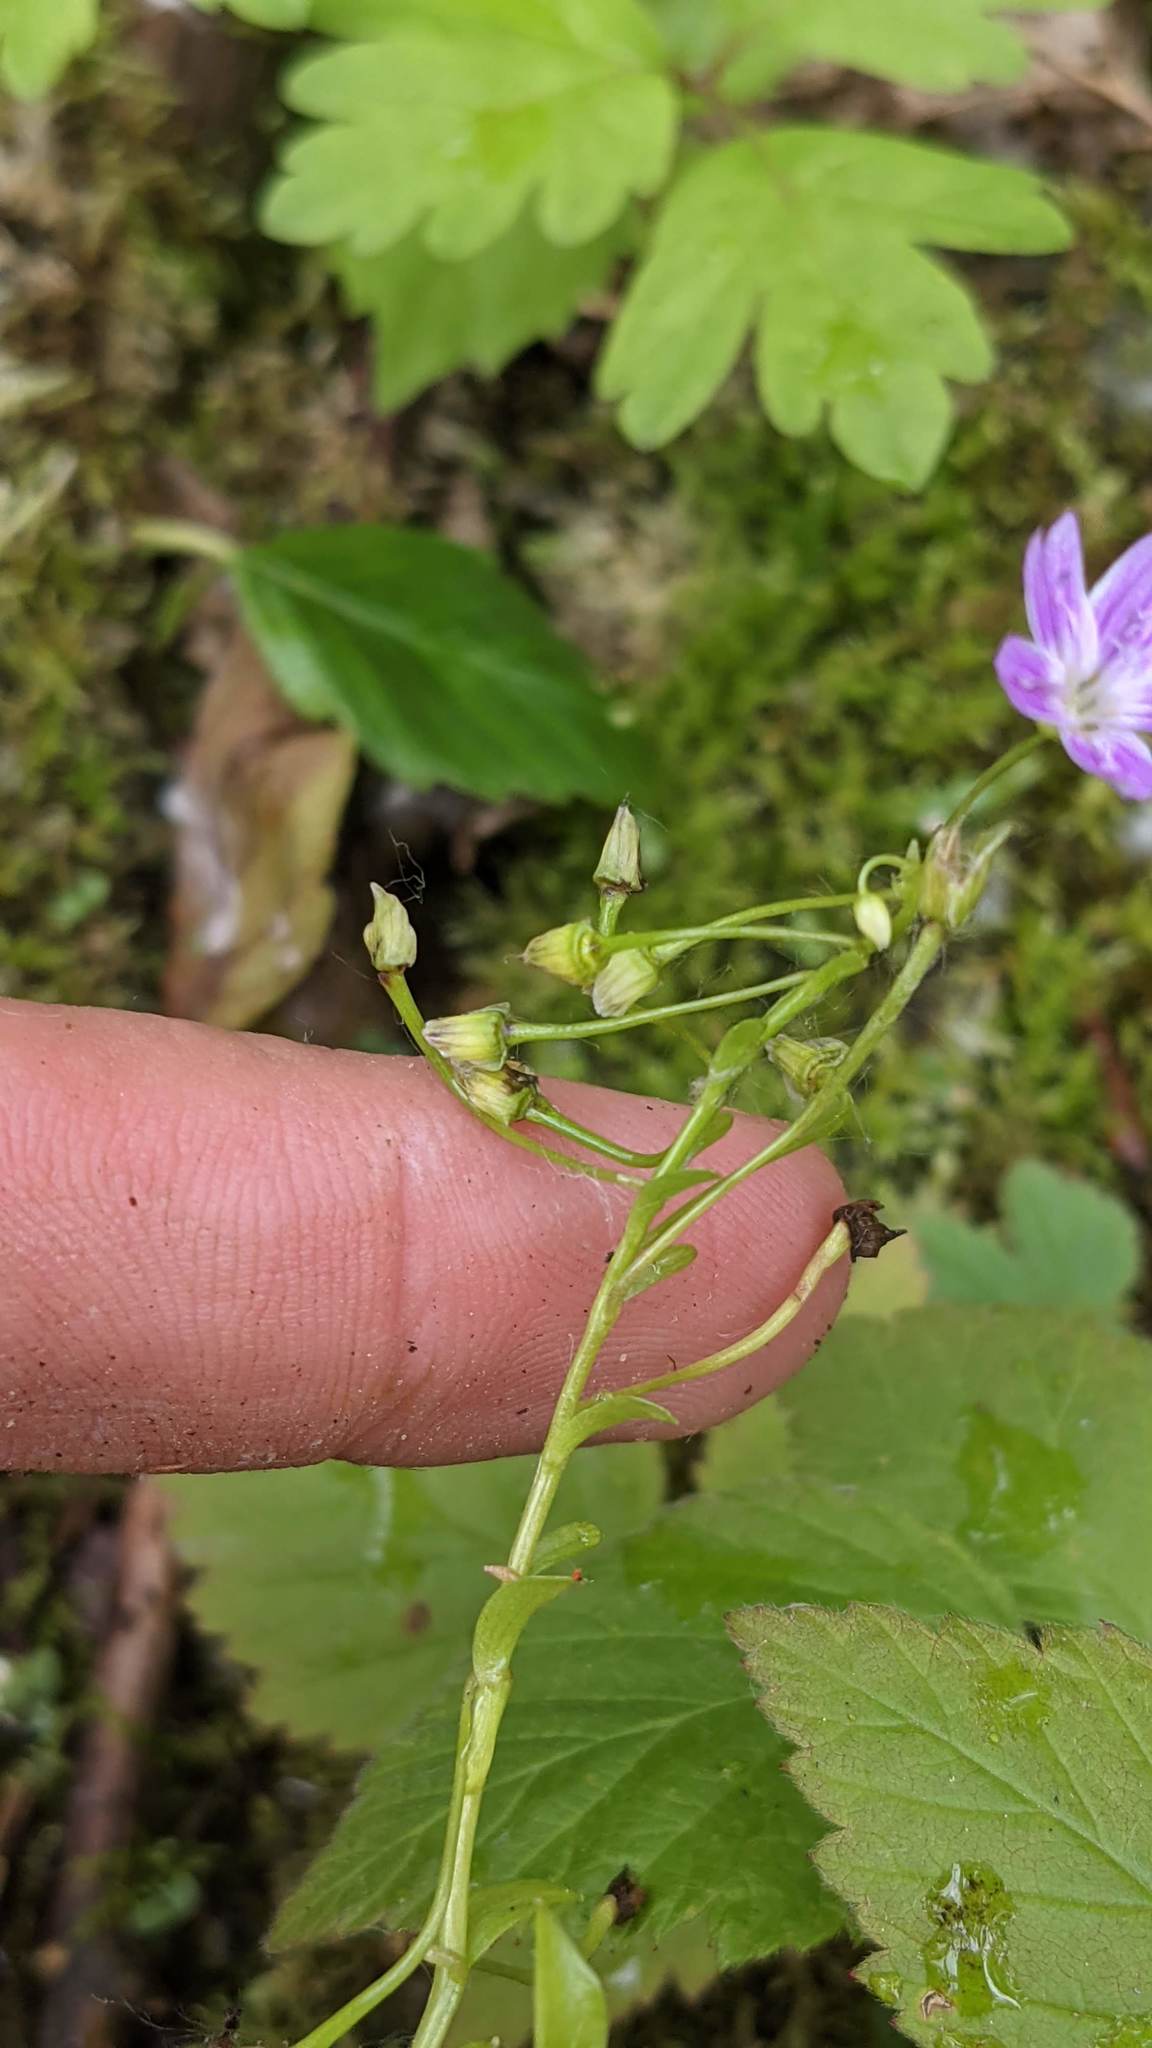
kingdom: Plantae
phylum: Tracheophyta
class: Magnoliopsida
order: Caryophyllales
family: Montiaceae
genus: Claytonia
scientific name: Claytonia sibirica
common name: Pink purslane
